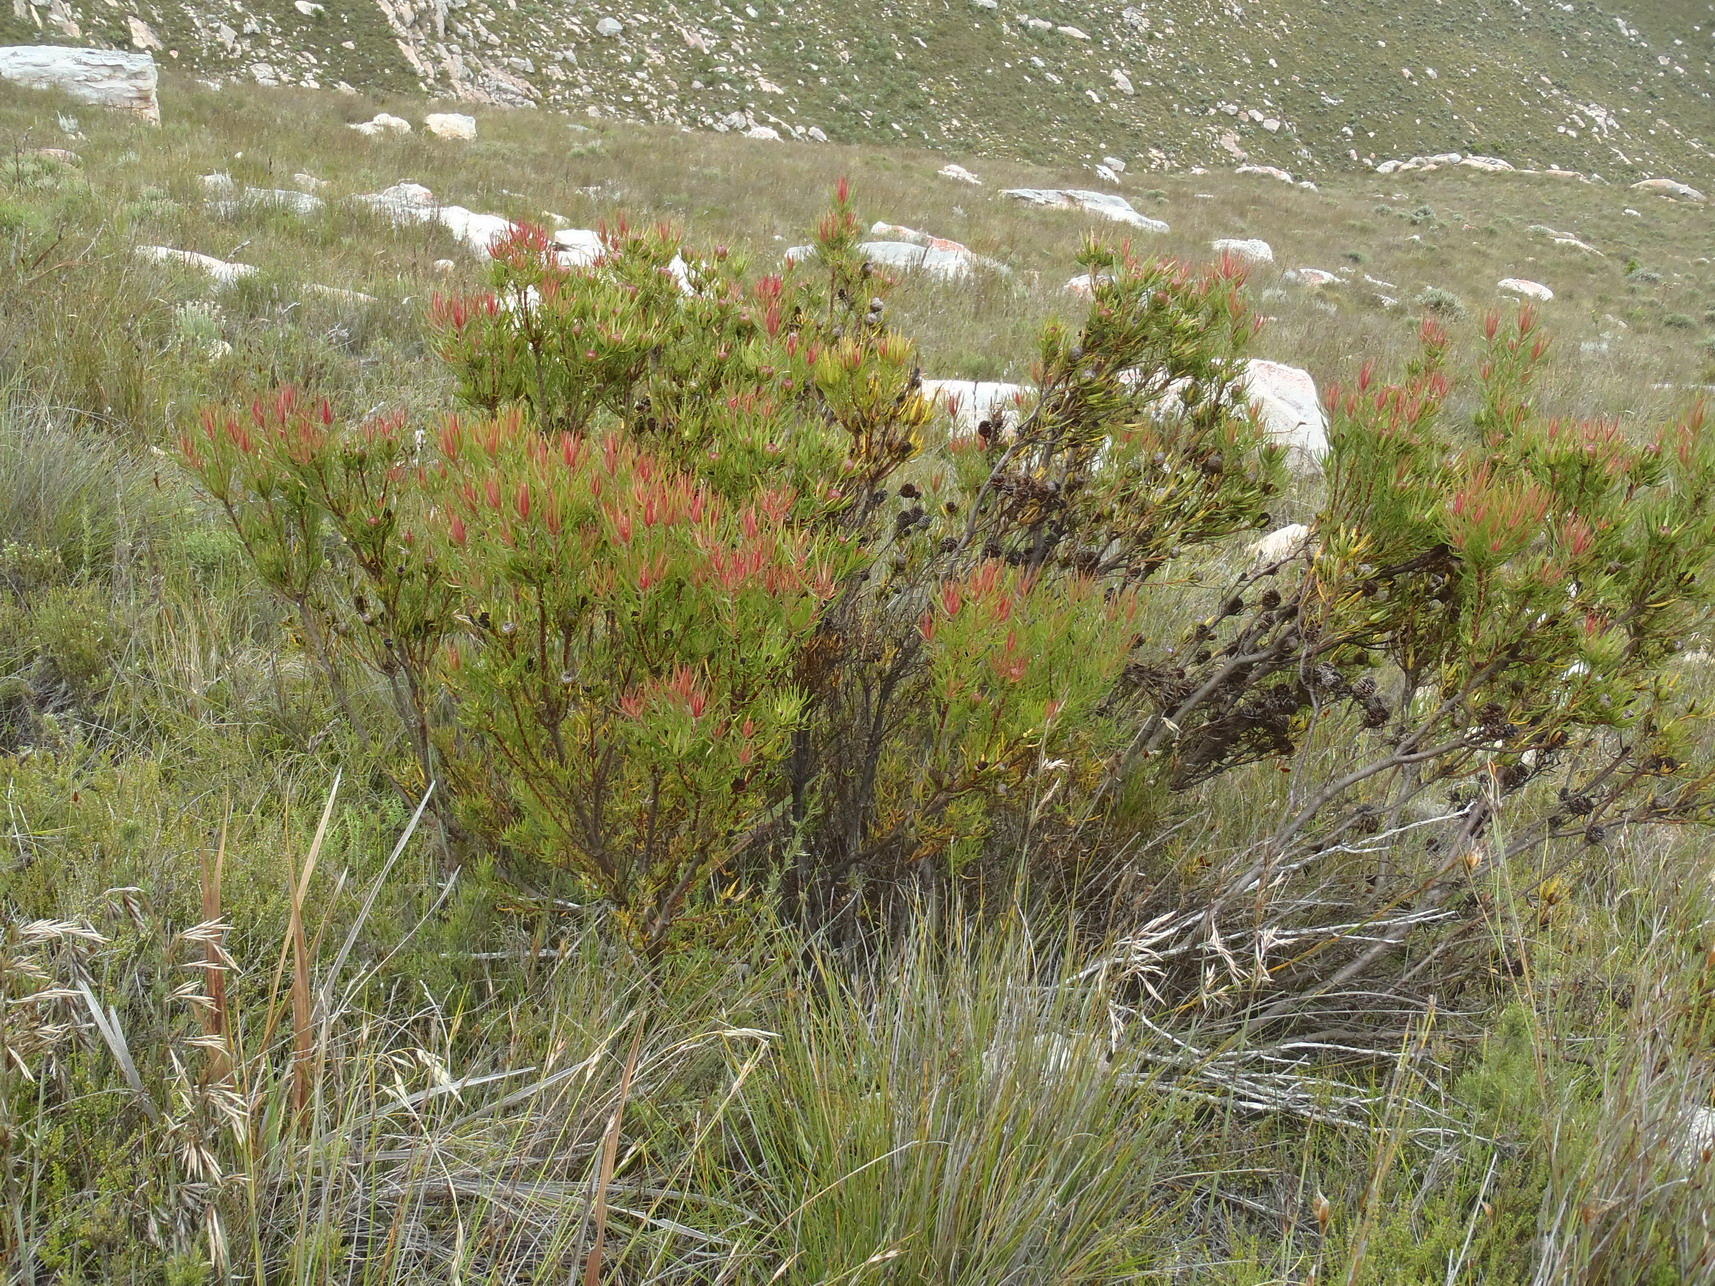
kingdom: Plantae
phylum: Tracheophyta
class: Magnoliopsida
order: Proteales
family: Proteaceae
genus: Leucadendron
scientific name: Leucadendron spissifolium
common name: Spear-leaf conebush
